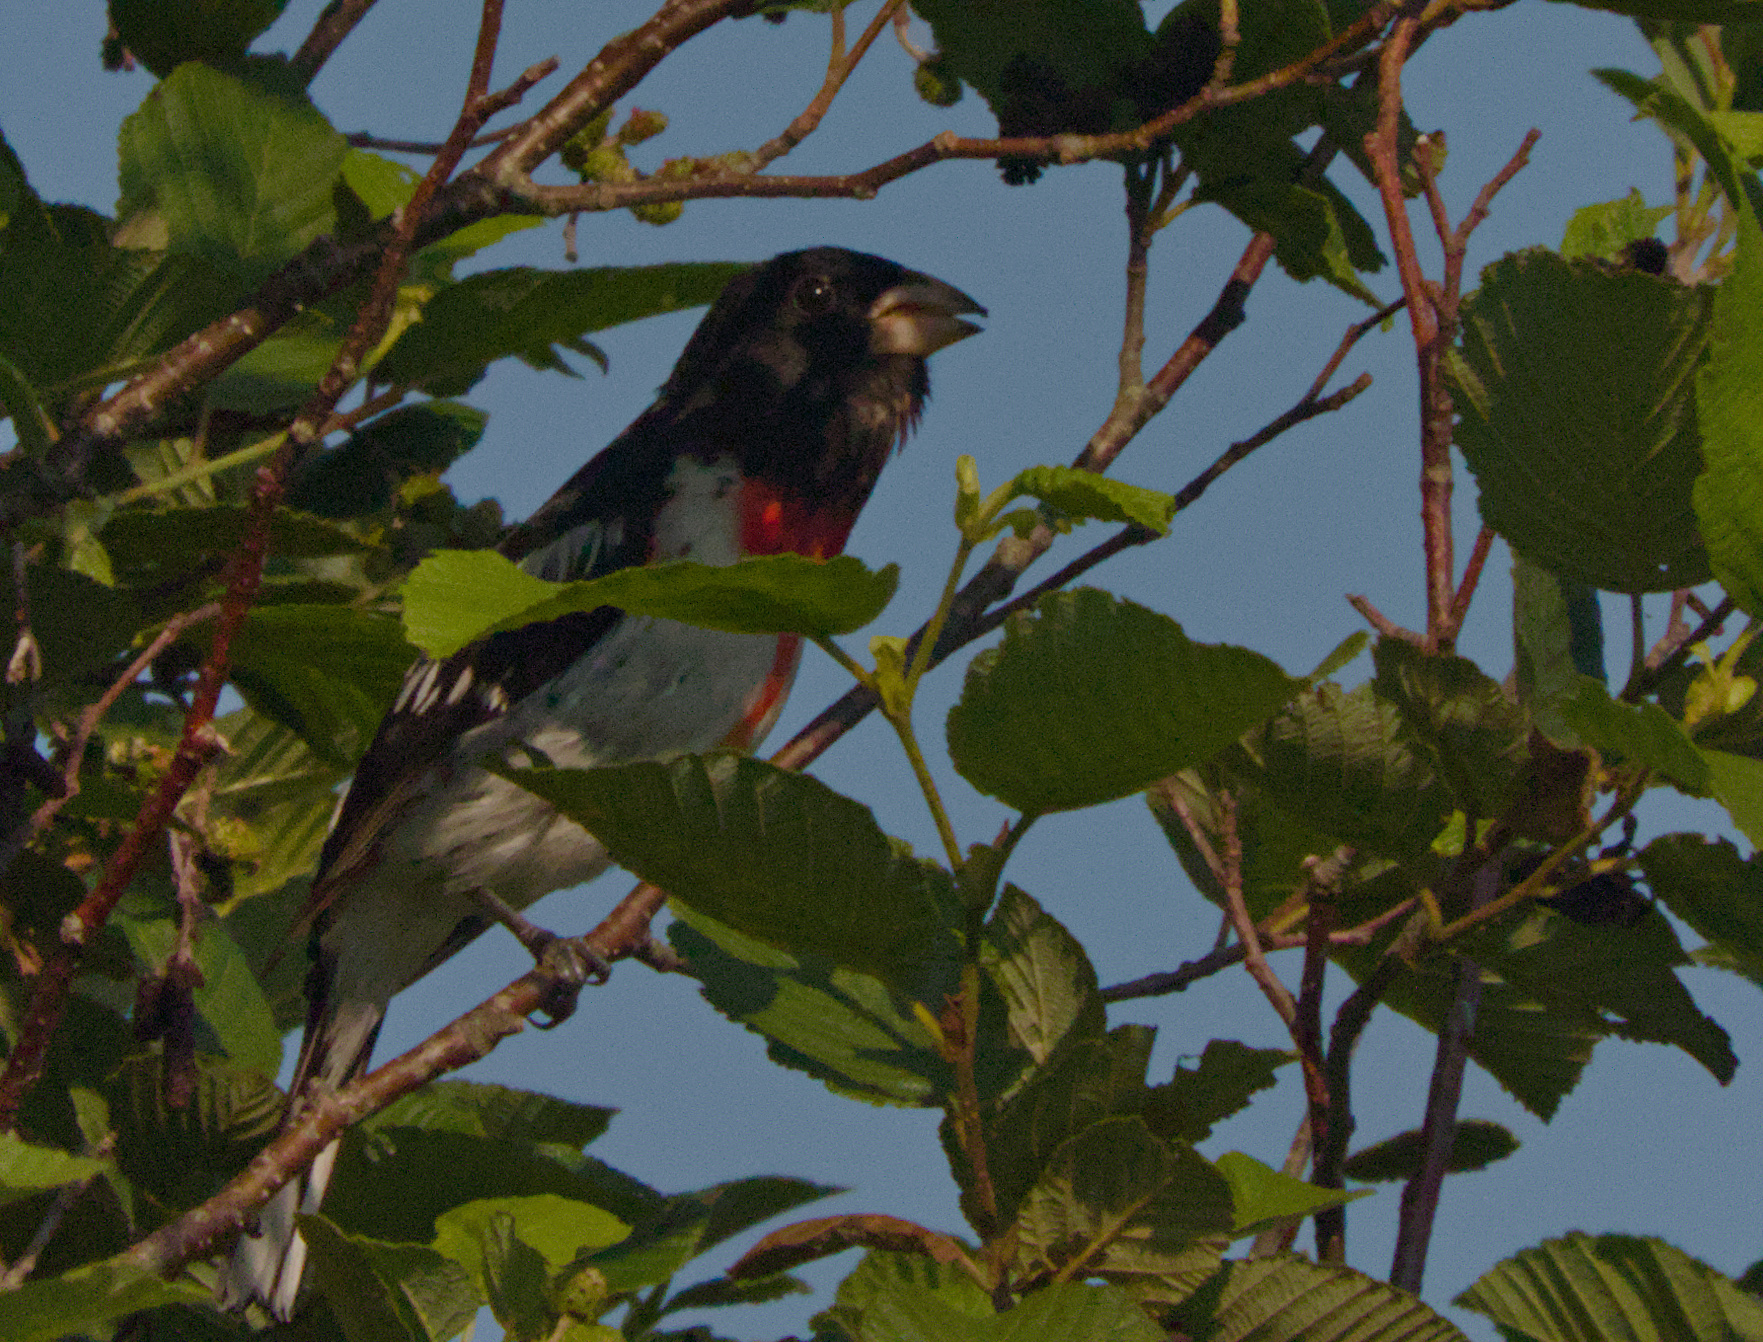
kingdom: Animalia
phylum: Chordata
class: Aves
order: Passeriformes
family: Cardinalidae
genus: Pheucticus
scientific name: Pheucticus ludovicianus
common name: Rose-breasted grosbeak
